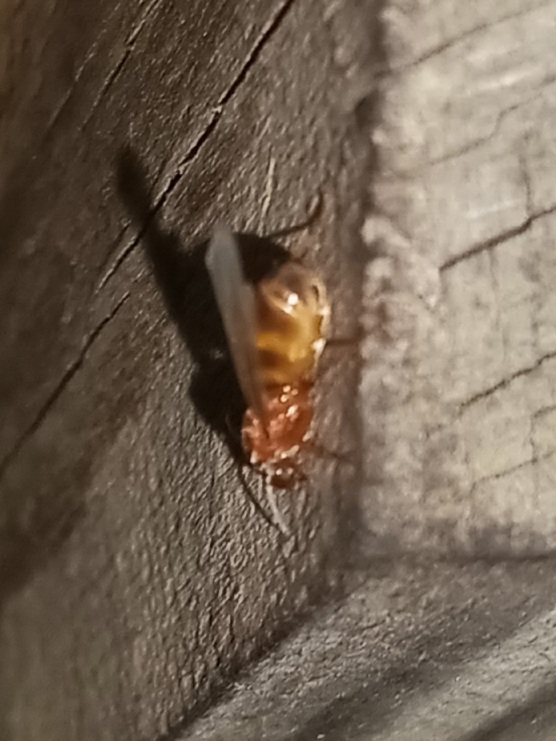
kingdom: Animalia
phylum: Arthropoda
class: Insecta
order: Hymenoptera
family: Formicidae
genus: Dorymyrmex
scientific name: Dorymyrmex bureni
